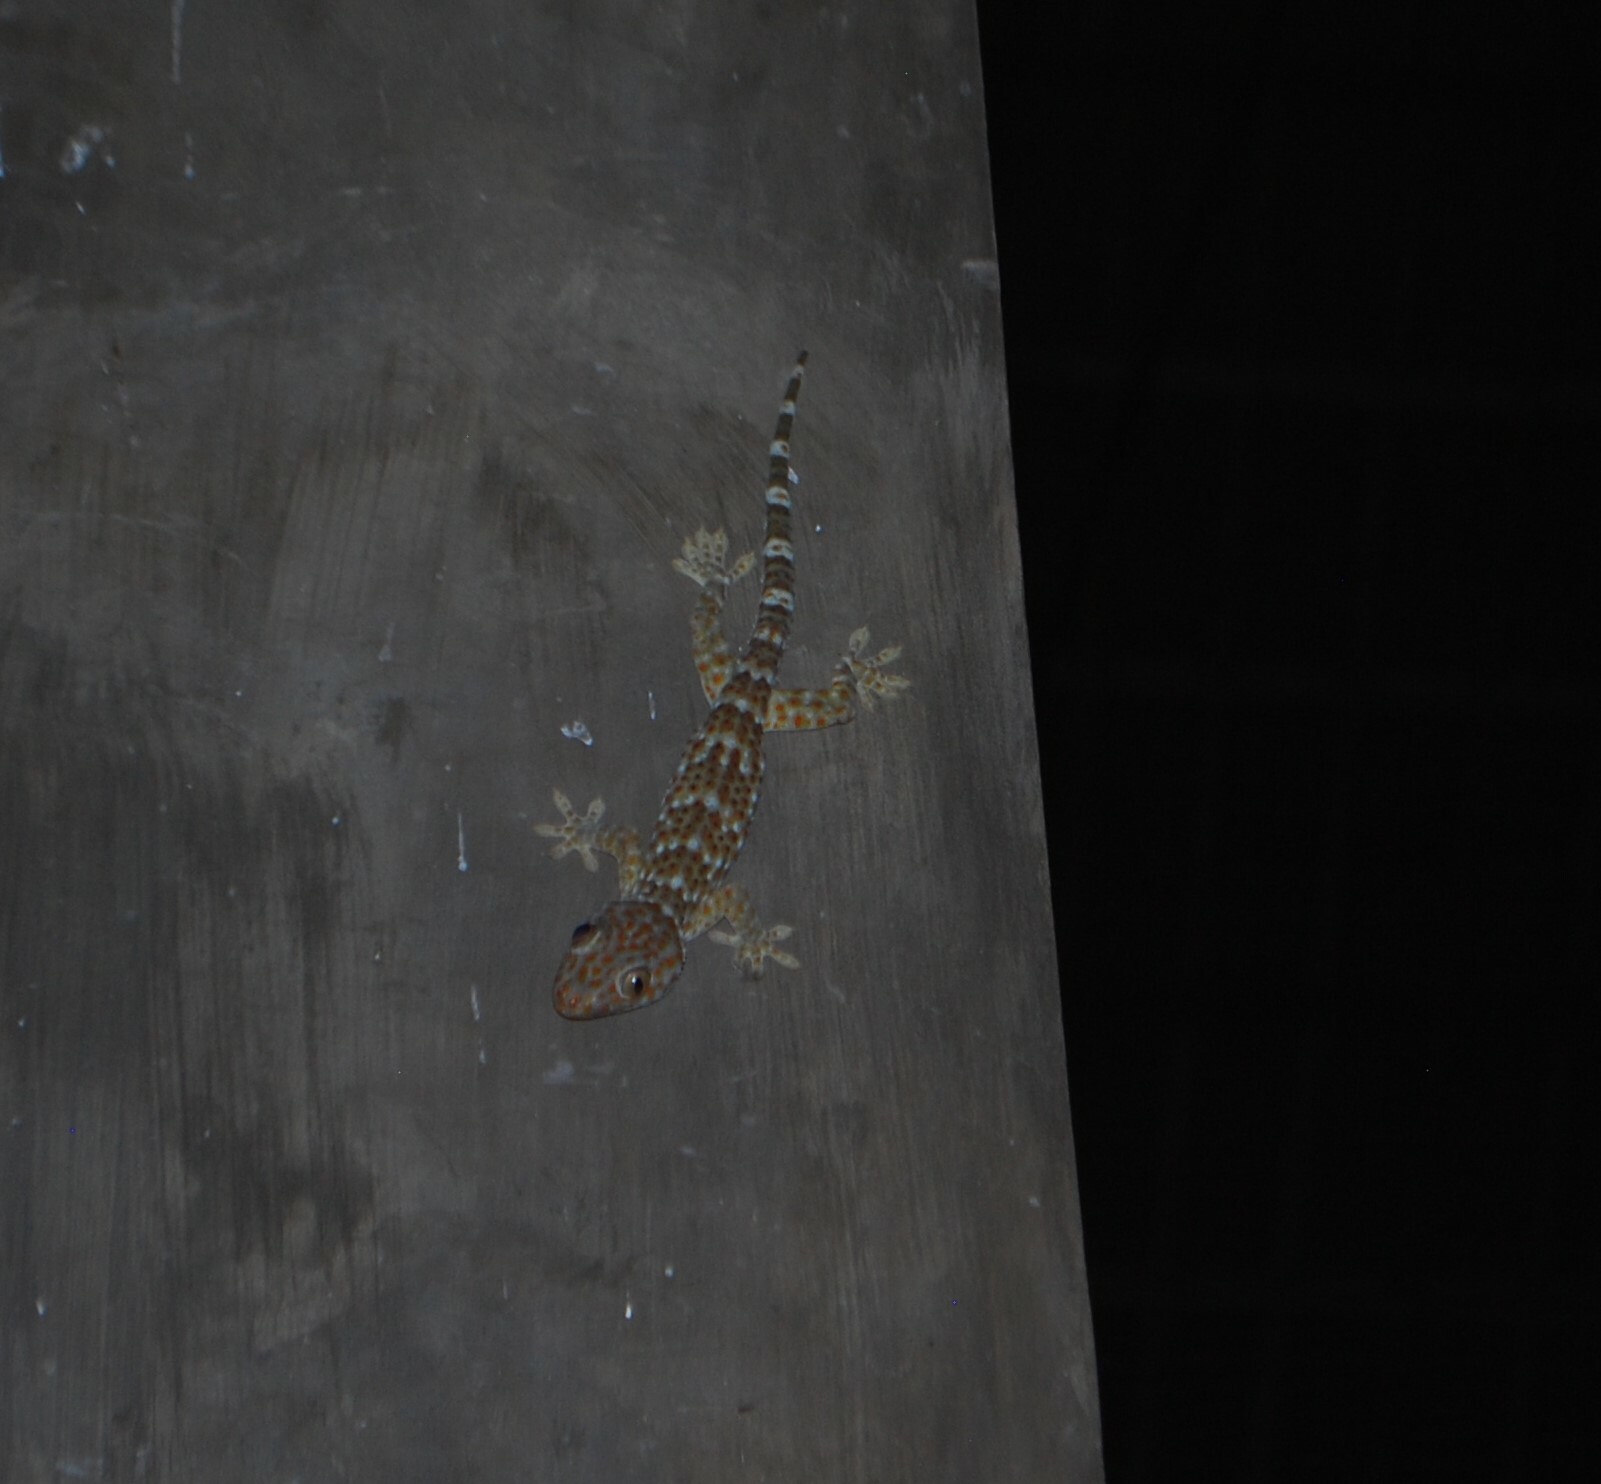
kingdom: Animalia
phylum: Chordata
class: Squamata
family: Gekkonidae
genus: Gekko
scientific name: Gekko gecko
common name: Tokay gecko
